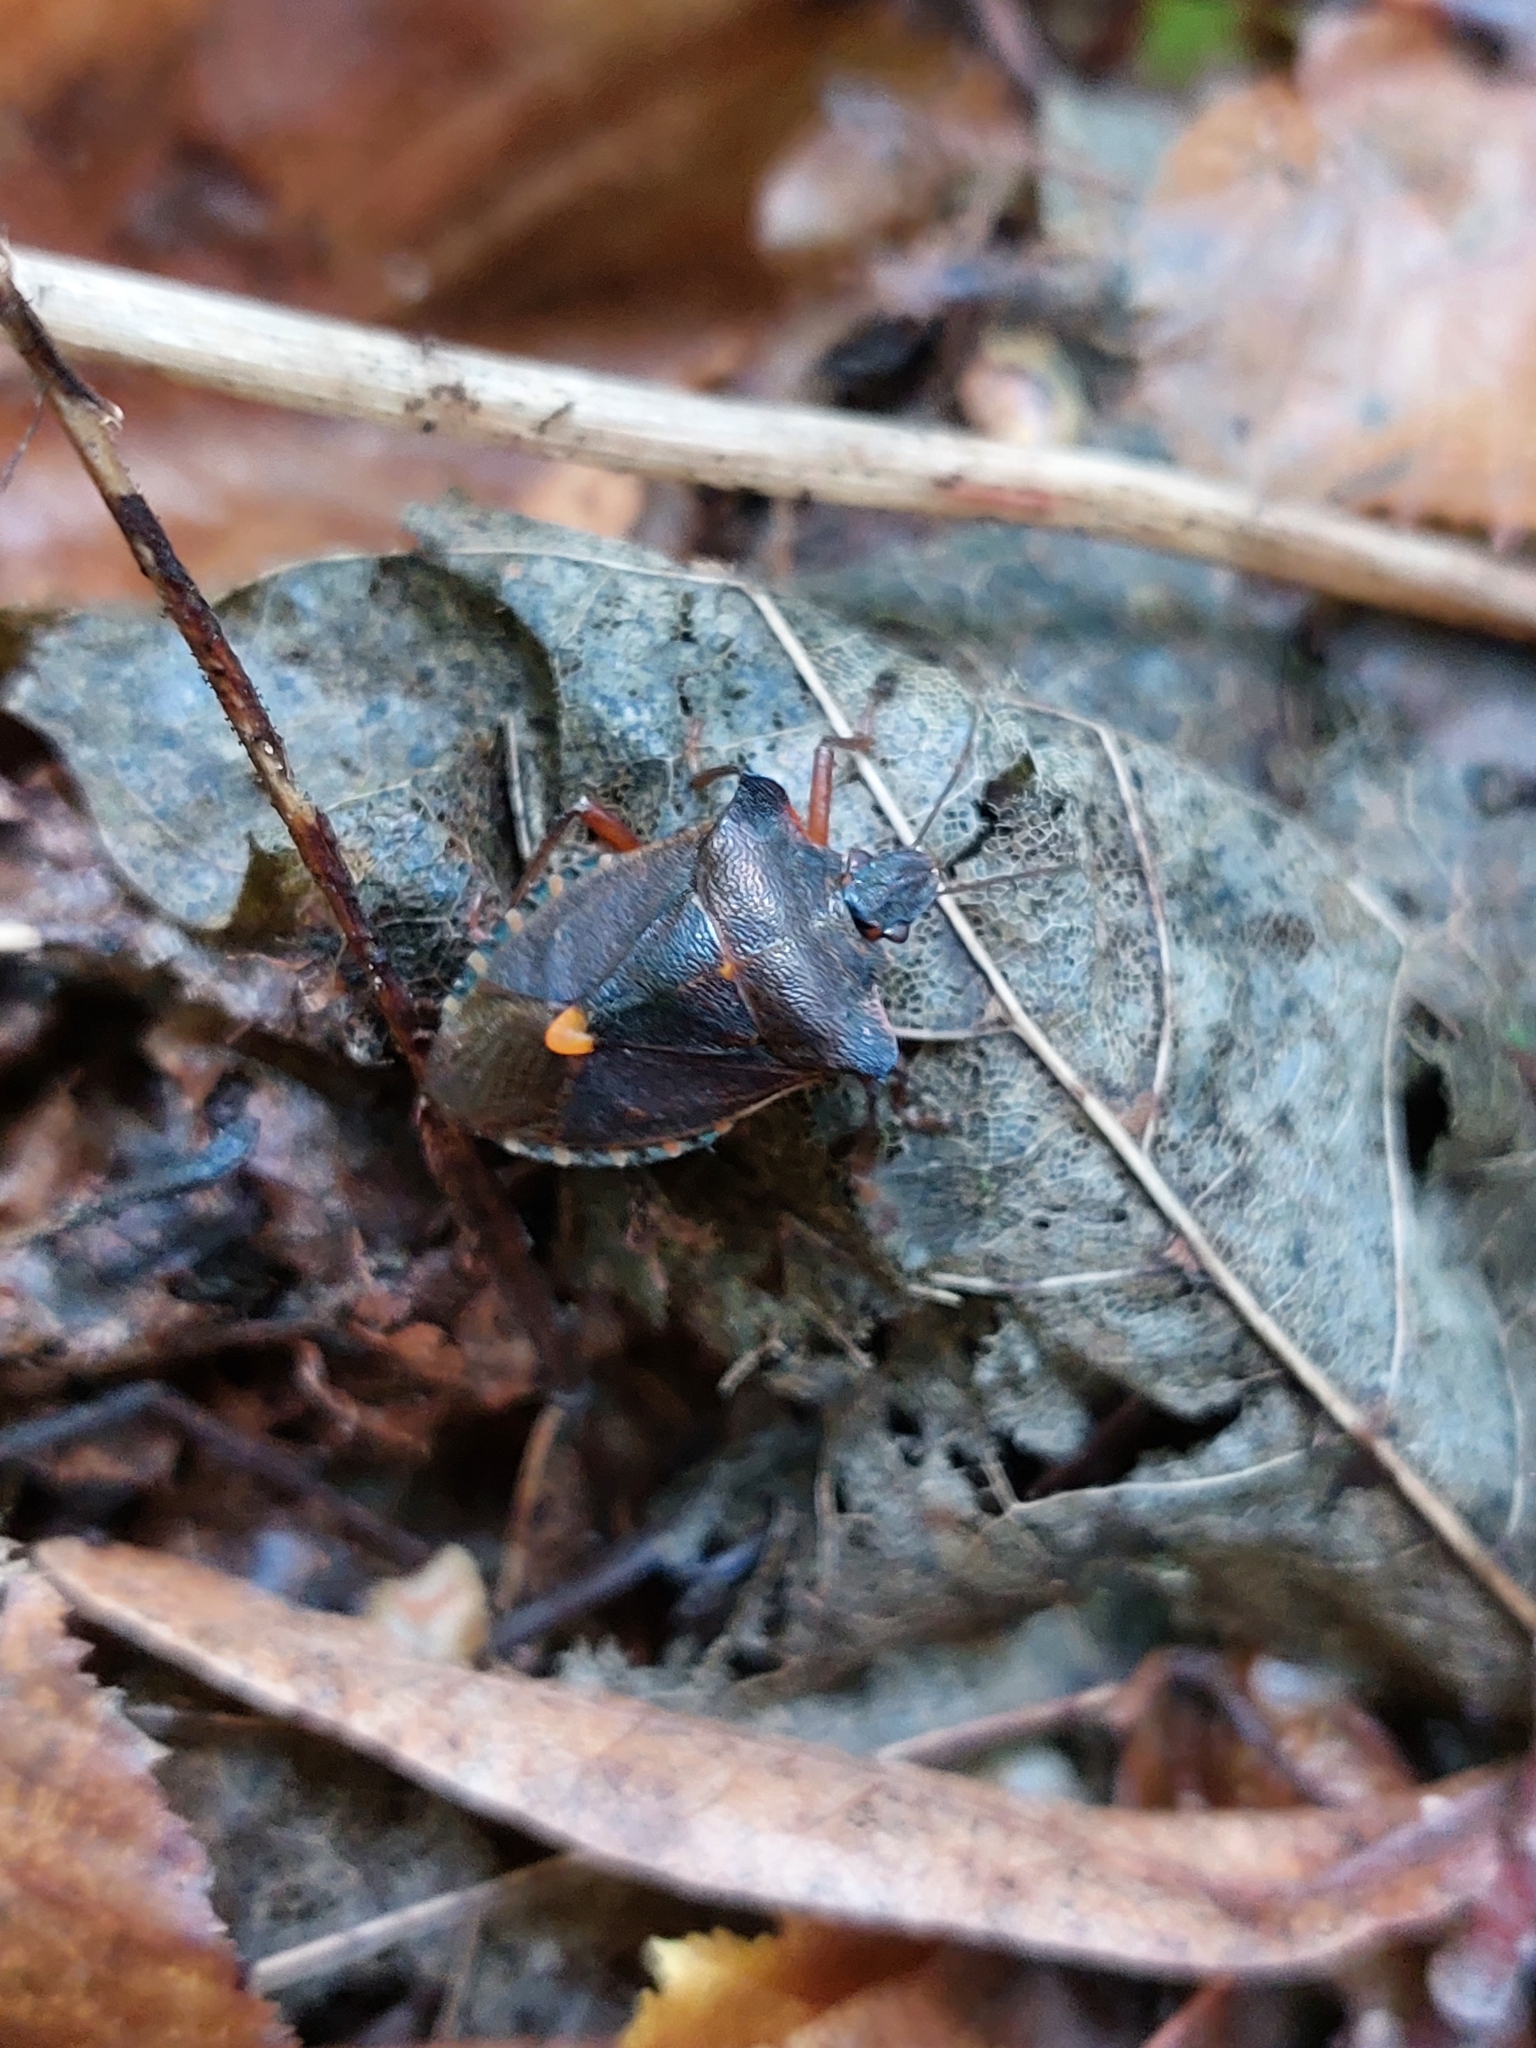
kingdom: Animalia
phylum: Arthropoda
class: Insecta
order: Hemiptera
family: Pentatomidae
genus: Pentatoma
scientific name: Pentatoma rufipes
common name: Forest bug
